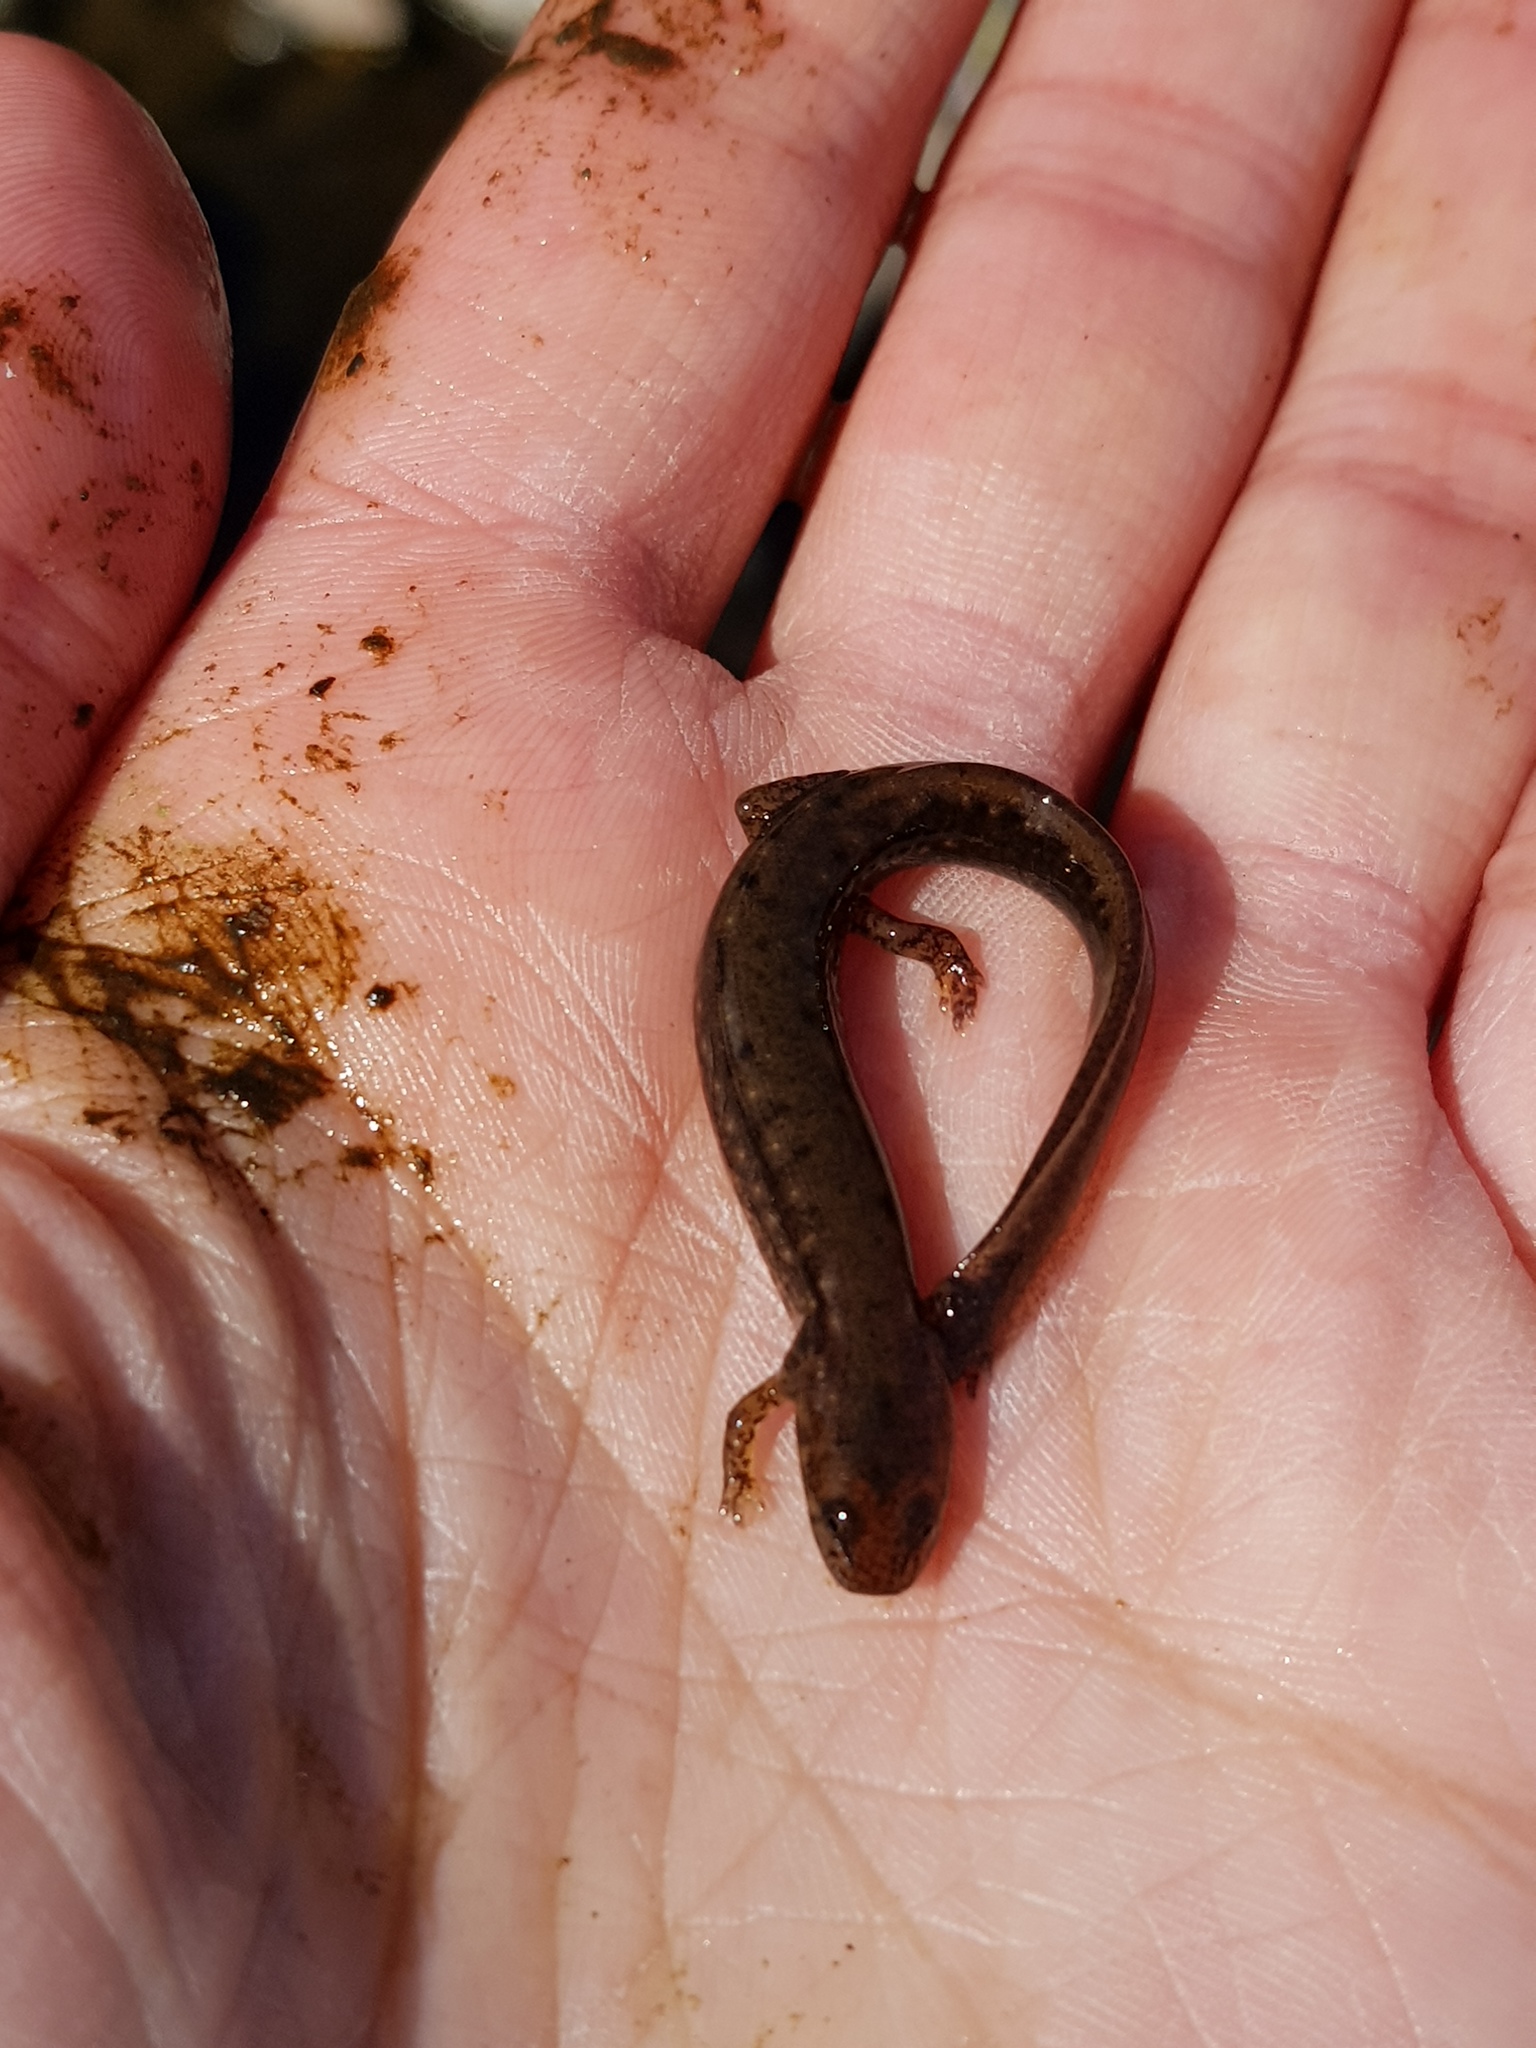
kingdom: Animalia
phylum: Chordata
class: Amphibia
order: Caudata
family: Plethodontidae
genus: Eurycea
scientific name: Eurycea bislineata
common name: Northern two-lined salamander
